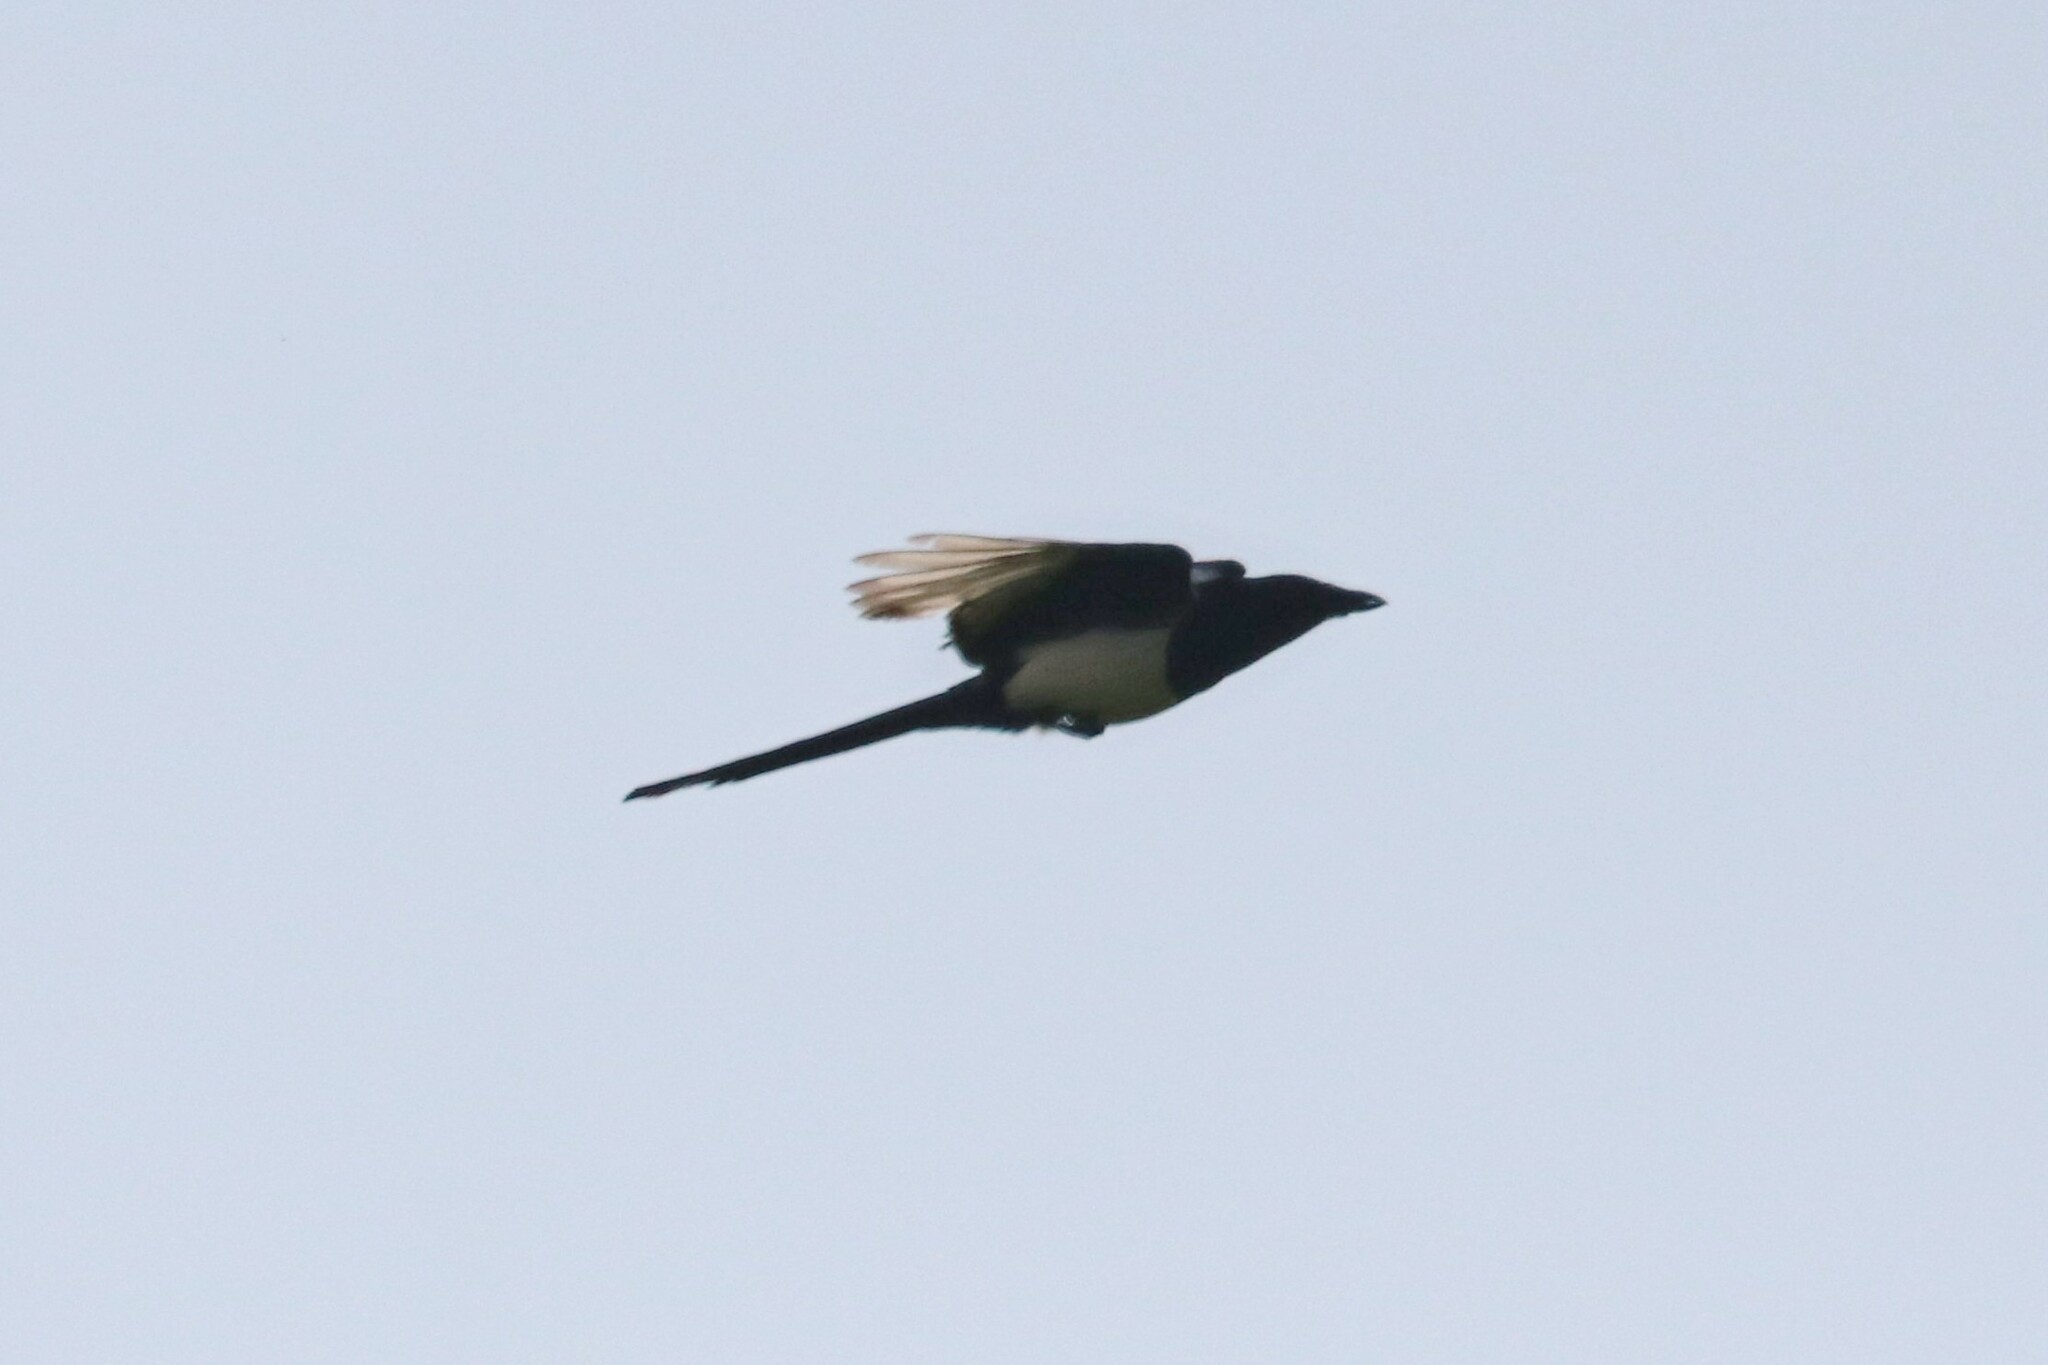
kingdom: Animalia
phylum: Chordata
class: Aves
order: Passeriformes
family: Corvidae
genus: Pica
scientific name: Pica pica
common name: Eurasian magpie
